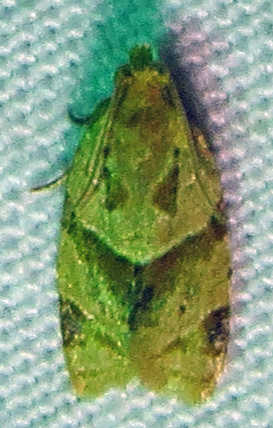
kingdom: Animalia
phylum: Arthropoda
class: Insecta
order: Lepidoptera
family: Tortricidae
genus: Clepsis
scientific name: Clepsis peritana
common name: Garden tortrix
